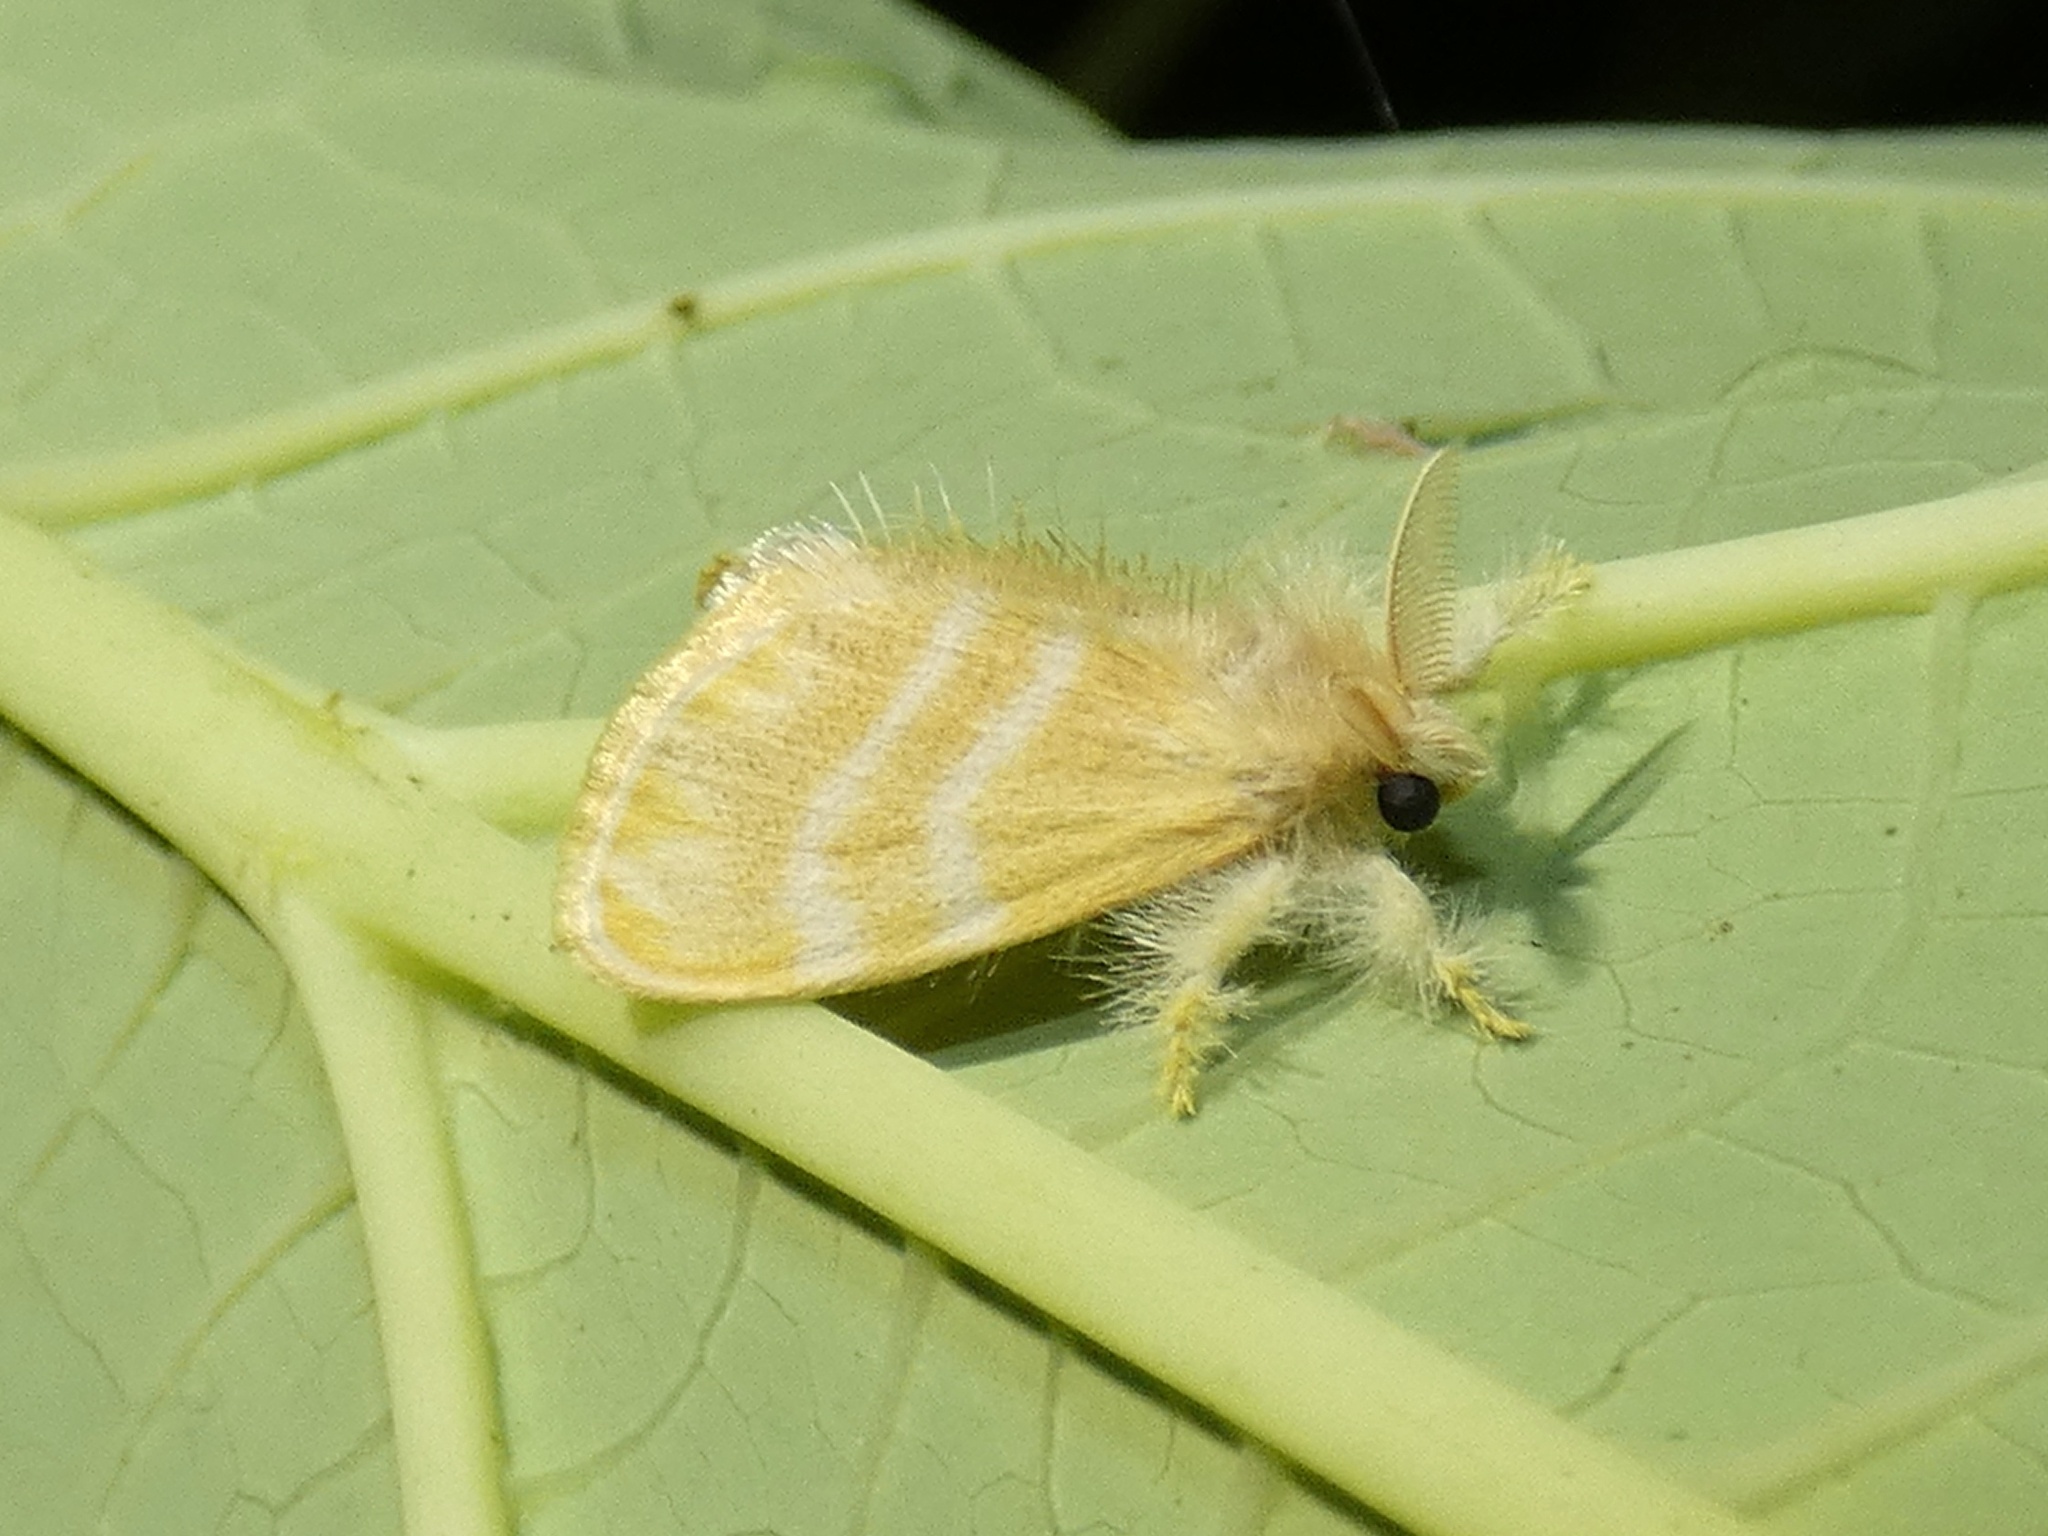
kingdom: Animalia
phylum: Arthropoda
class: Insecta
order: Lepidoptera
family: Erebidae
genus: Euproctis
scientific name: Euproctis lutea
